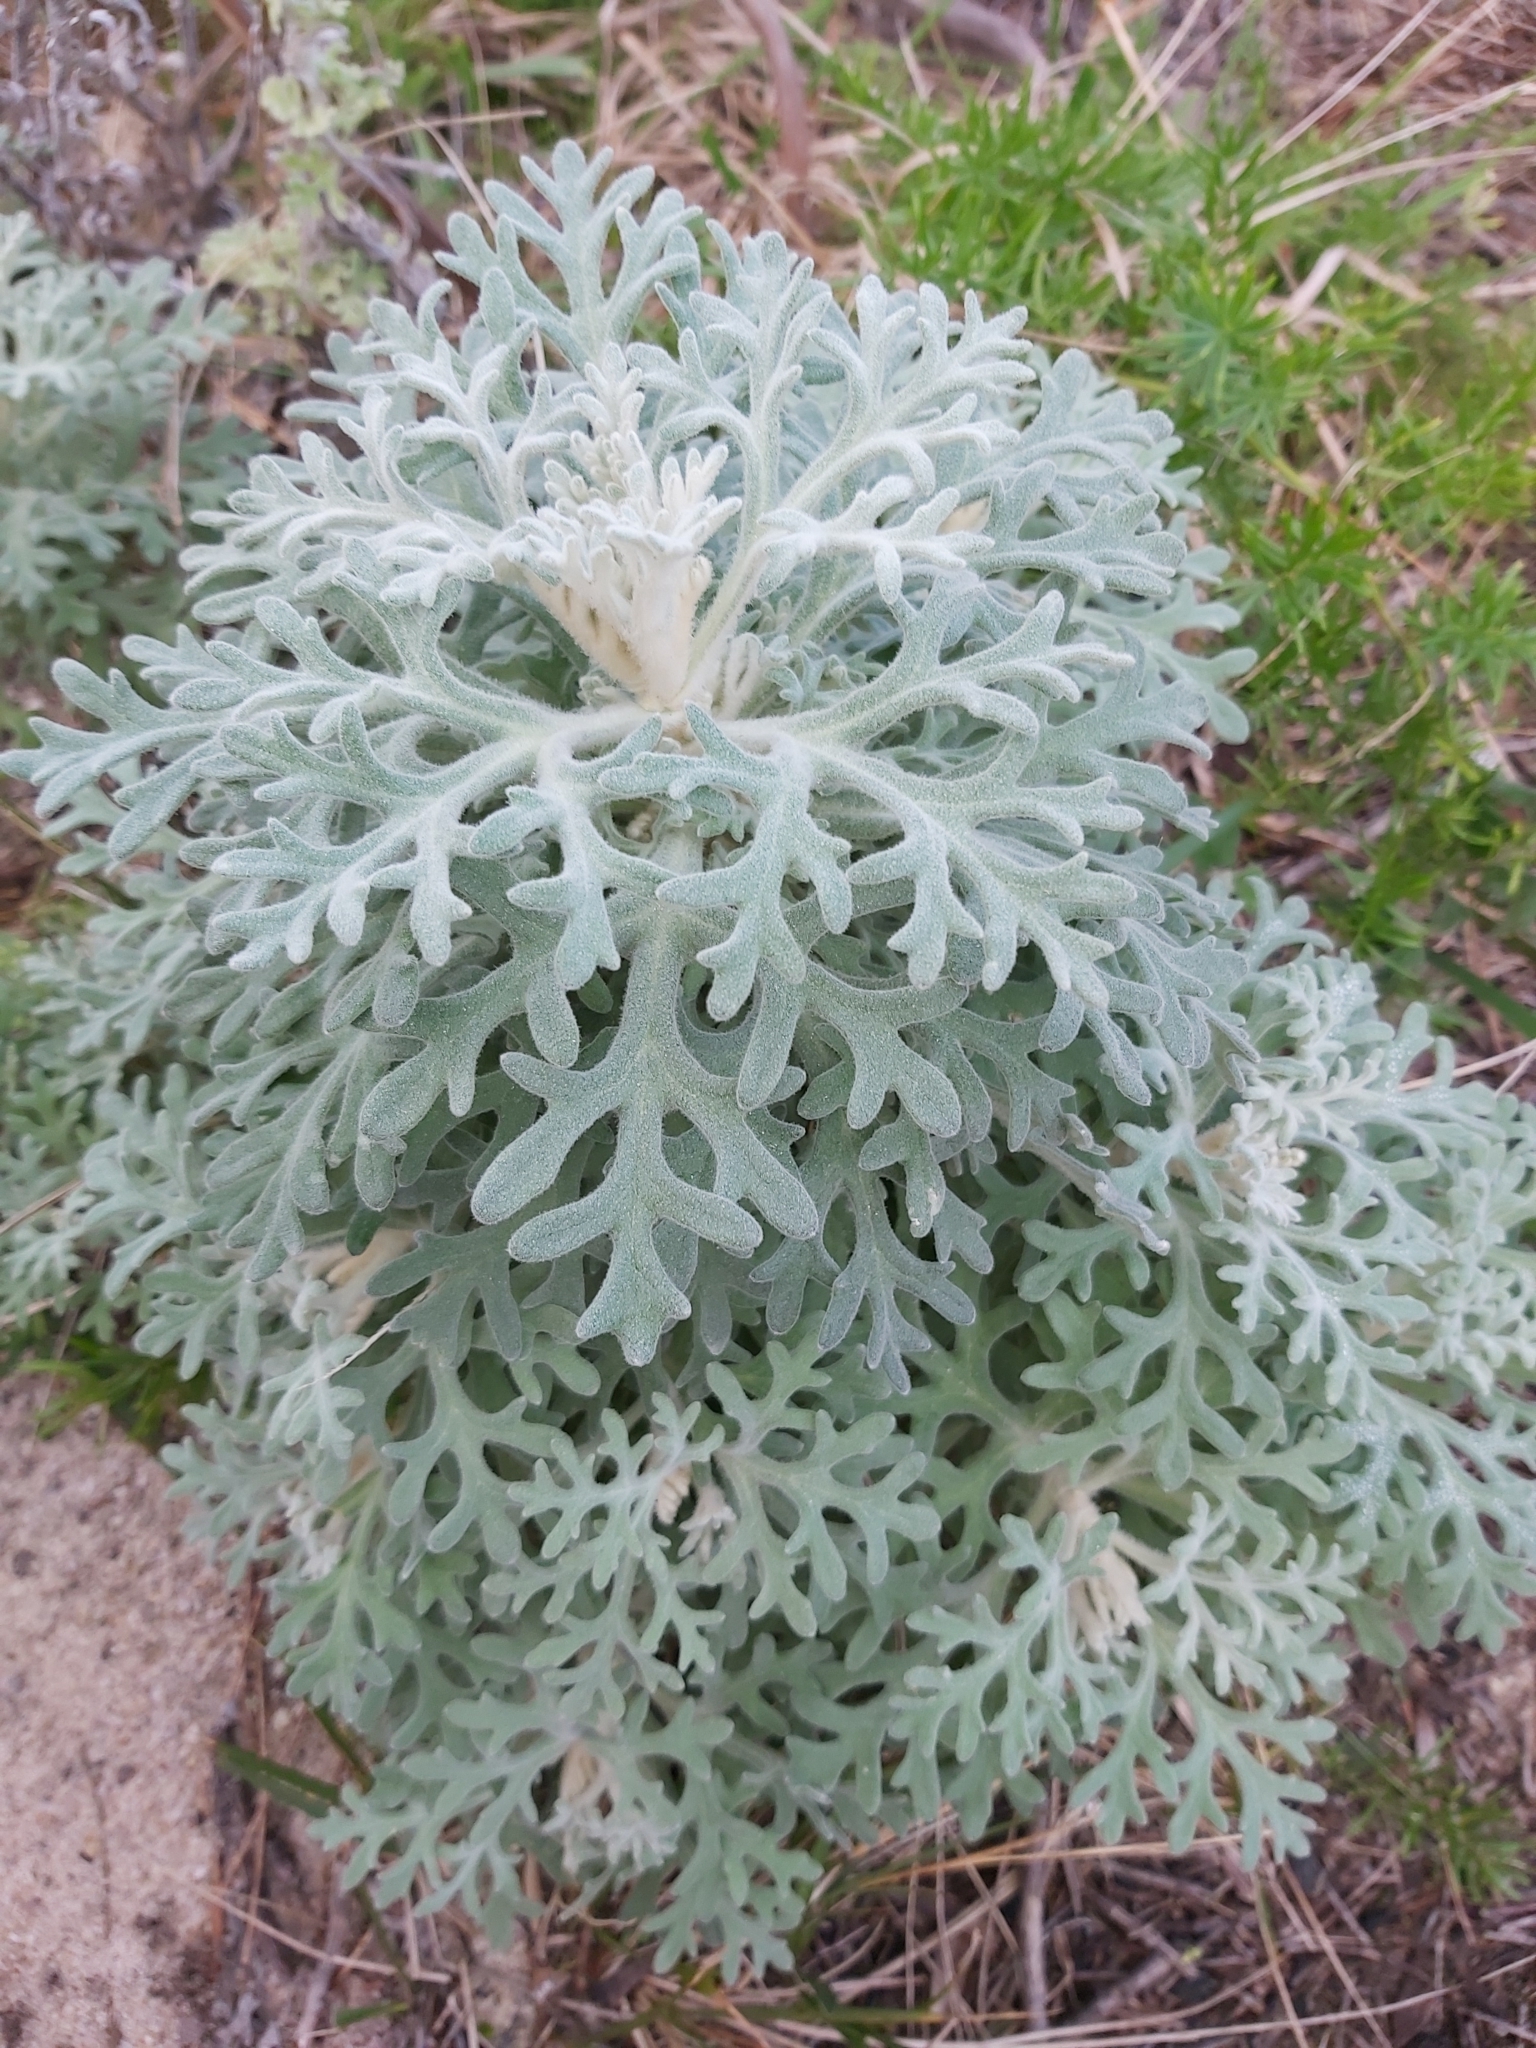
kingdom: Plantae
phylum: Tracheophyta
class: Magnoliopsida
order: Apiales
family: Apiaceae
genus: Actinotus
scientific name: Actinotus helianthi
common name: Flannel-flower
